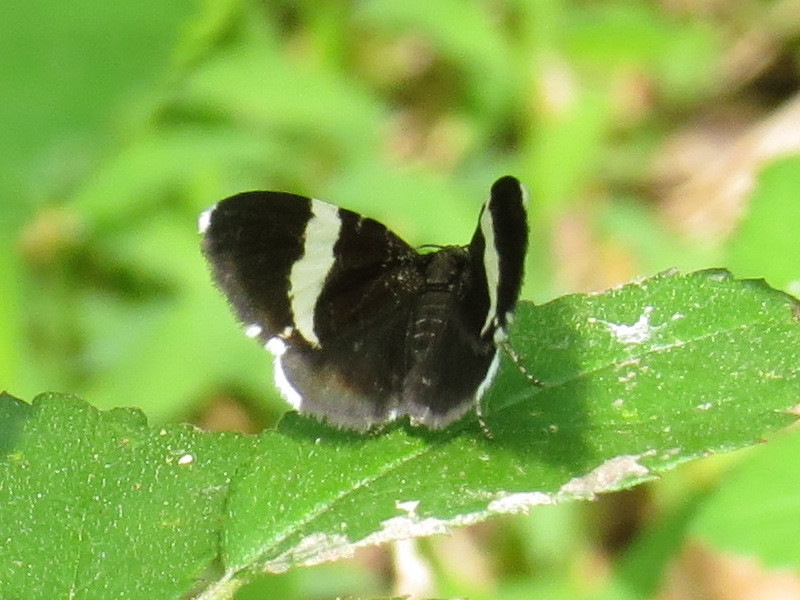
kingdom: Animalia
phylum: Arthropoda
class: Insecta
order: Lepidoptera
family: Geometridae
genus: Trichodezia
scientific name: Trichodezia albovittata
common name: White striped black
